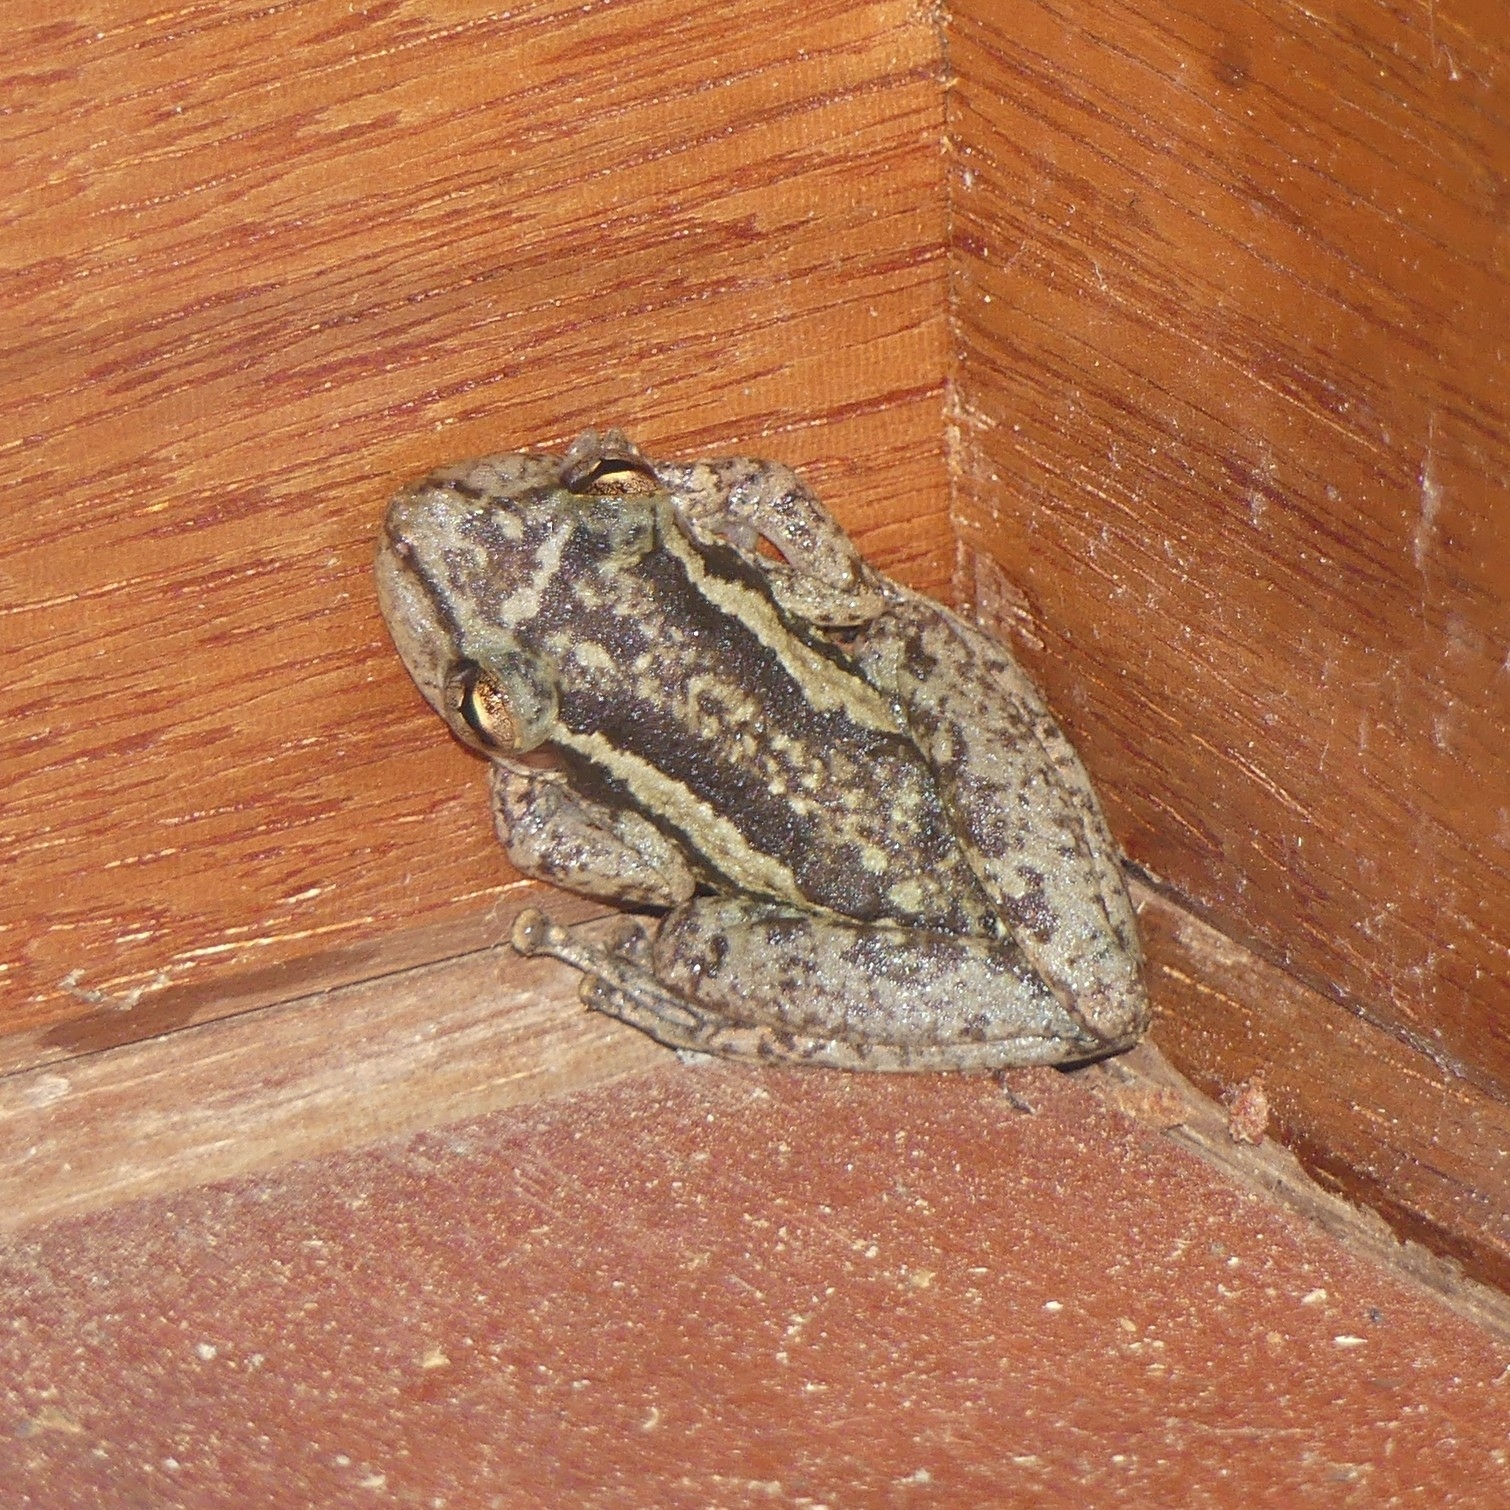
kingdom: Animalia
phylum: Chordata
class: Amphibia
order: Anura
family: Hylidae
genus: Scinax
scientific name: Scinax ruber
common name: Red snouted treefrog
